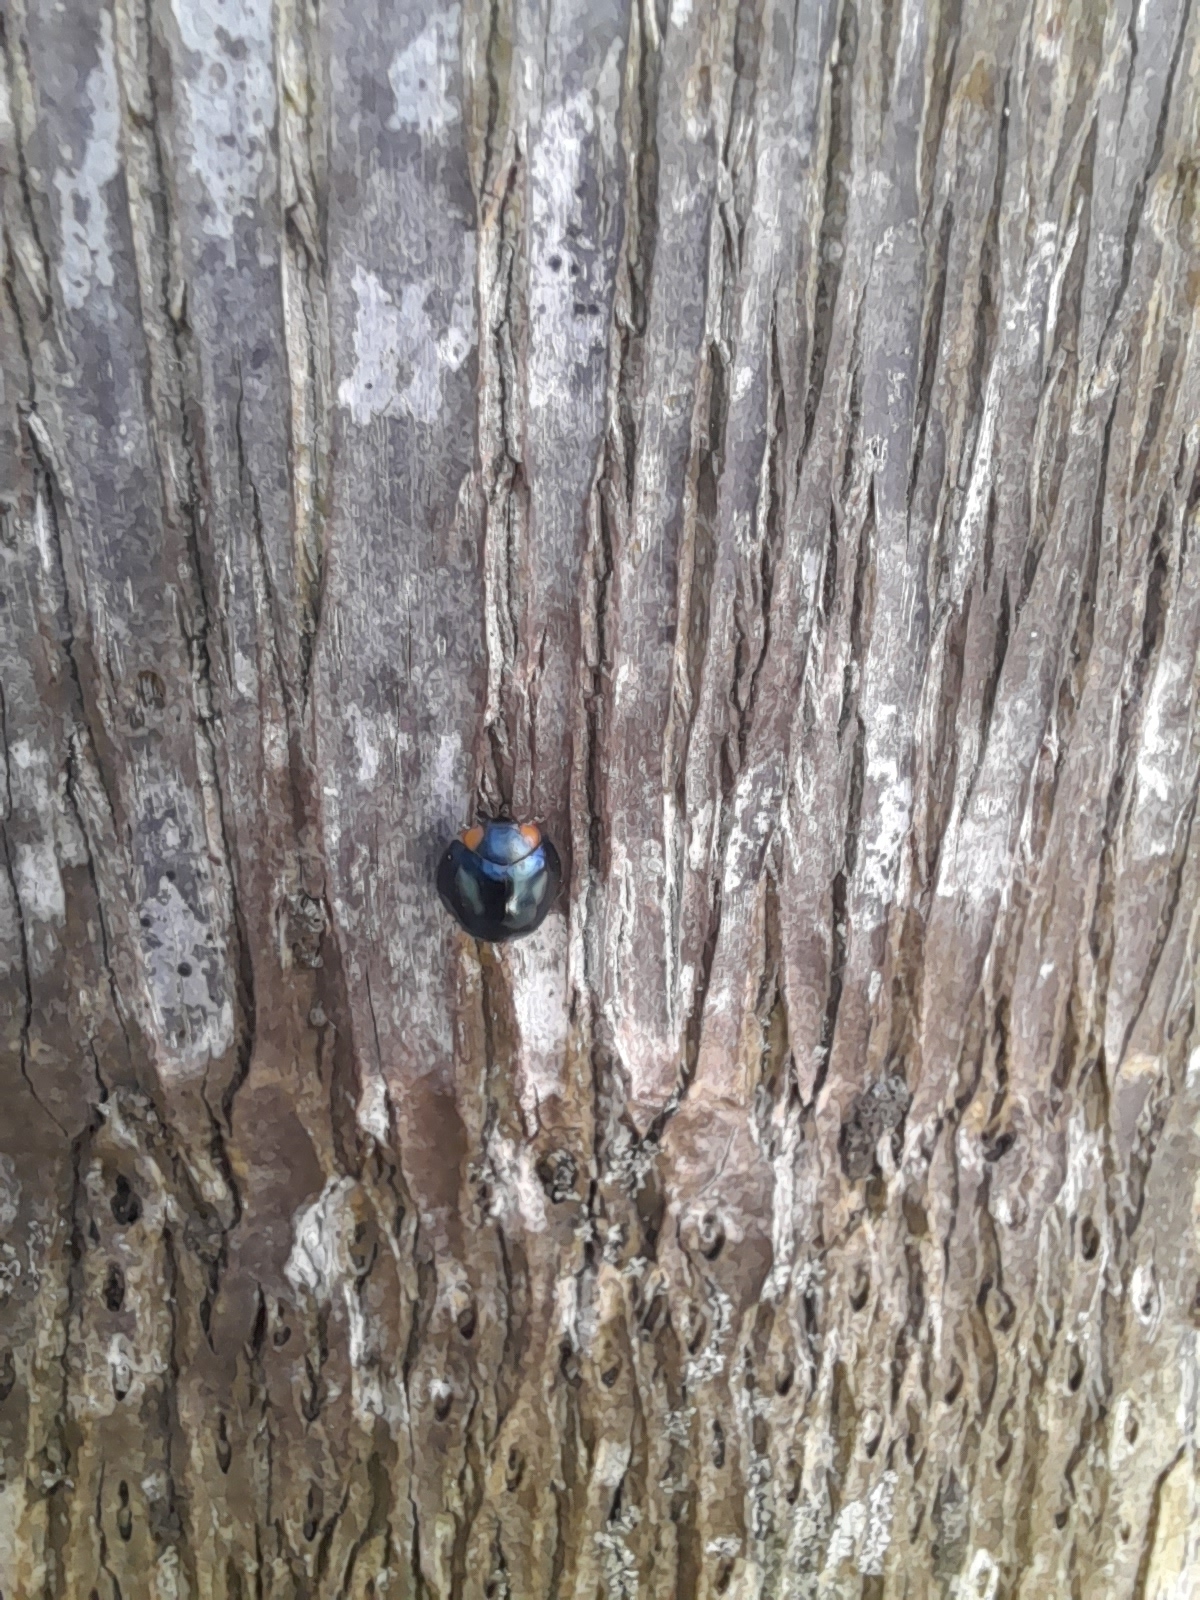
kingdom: Animalia
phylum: Arthropoda
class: Insecta
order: Coleoptera
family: Coccinellidae
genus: Curinus
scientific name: Curinus coeruleus
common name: Ladybird beetle
